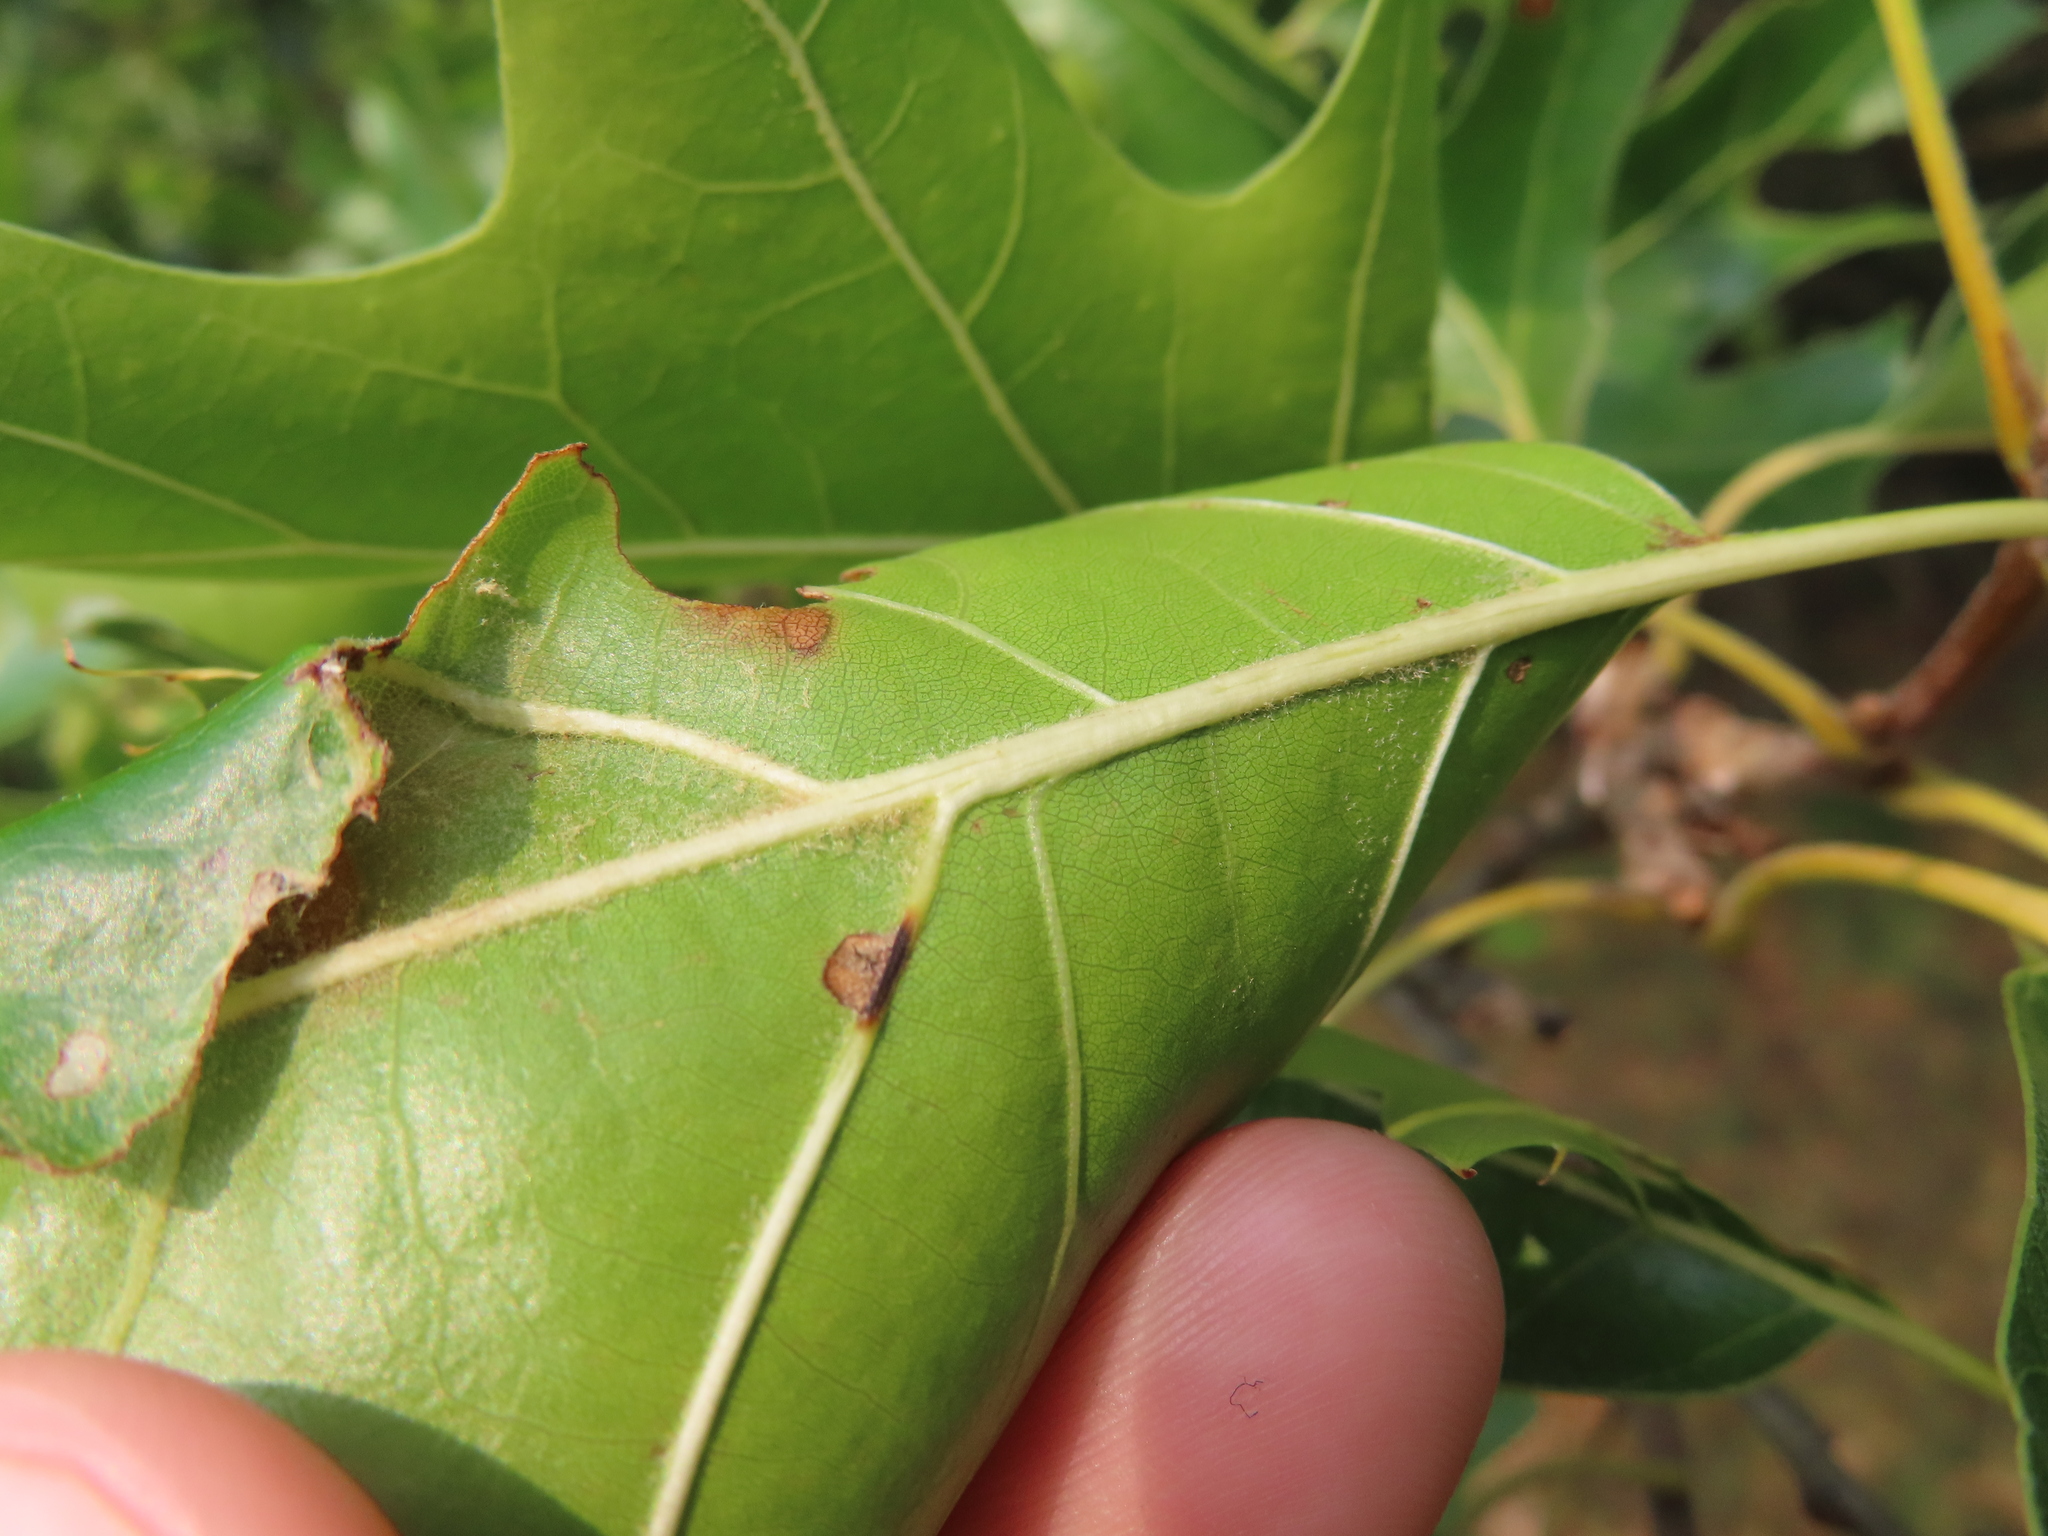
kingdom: Animalia
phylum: Arthropoda
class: Insecta
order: Hymenoptera
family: Cynipidae
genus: Kokkocynips
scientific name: Kokkocynips rileyi
